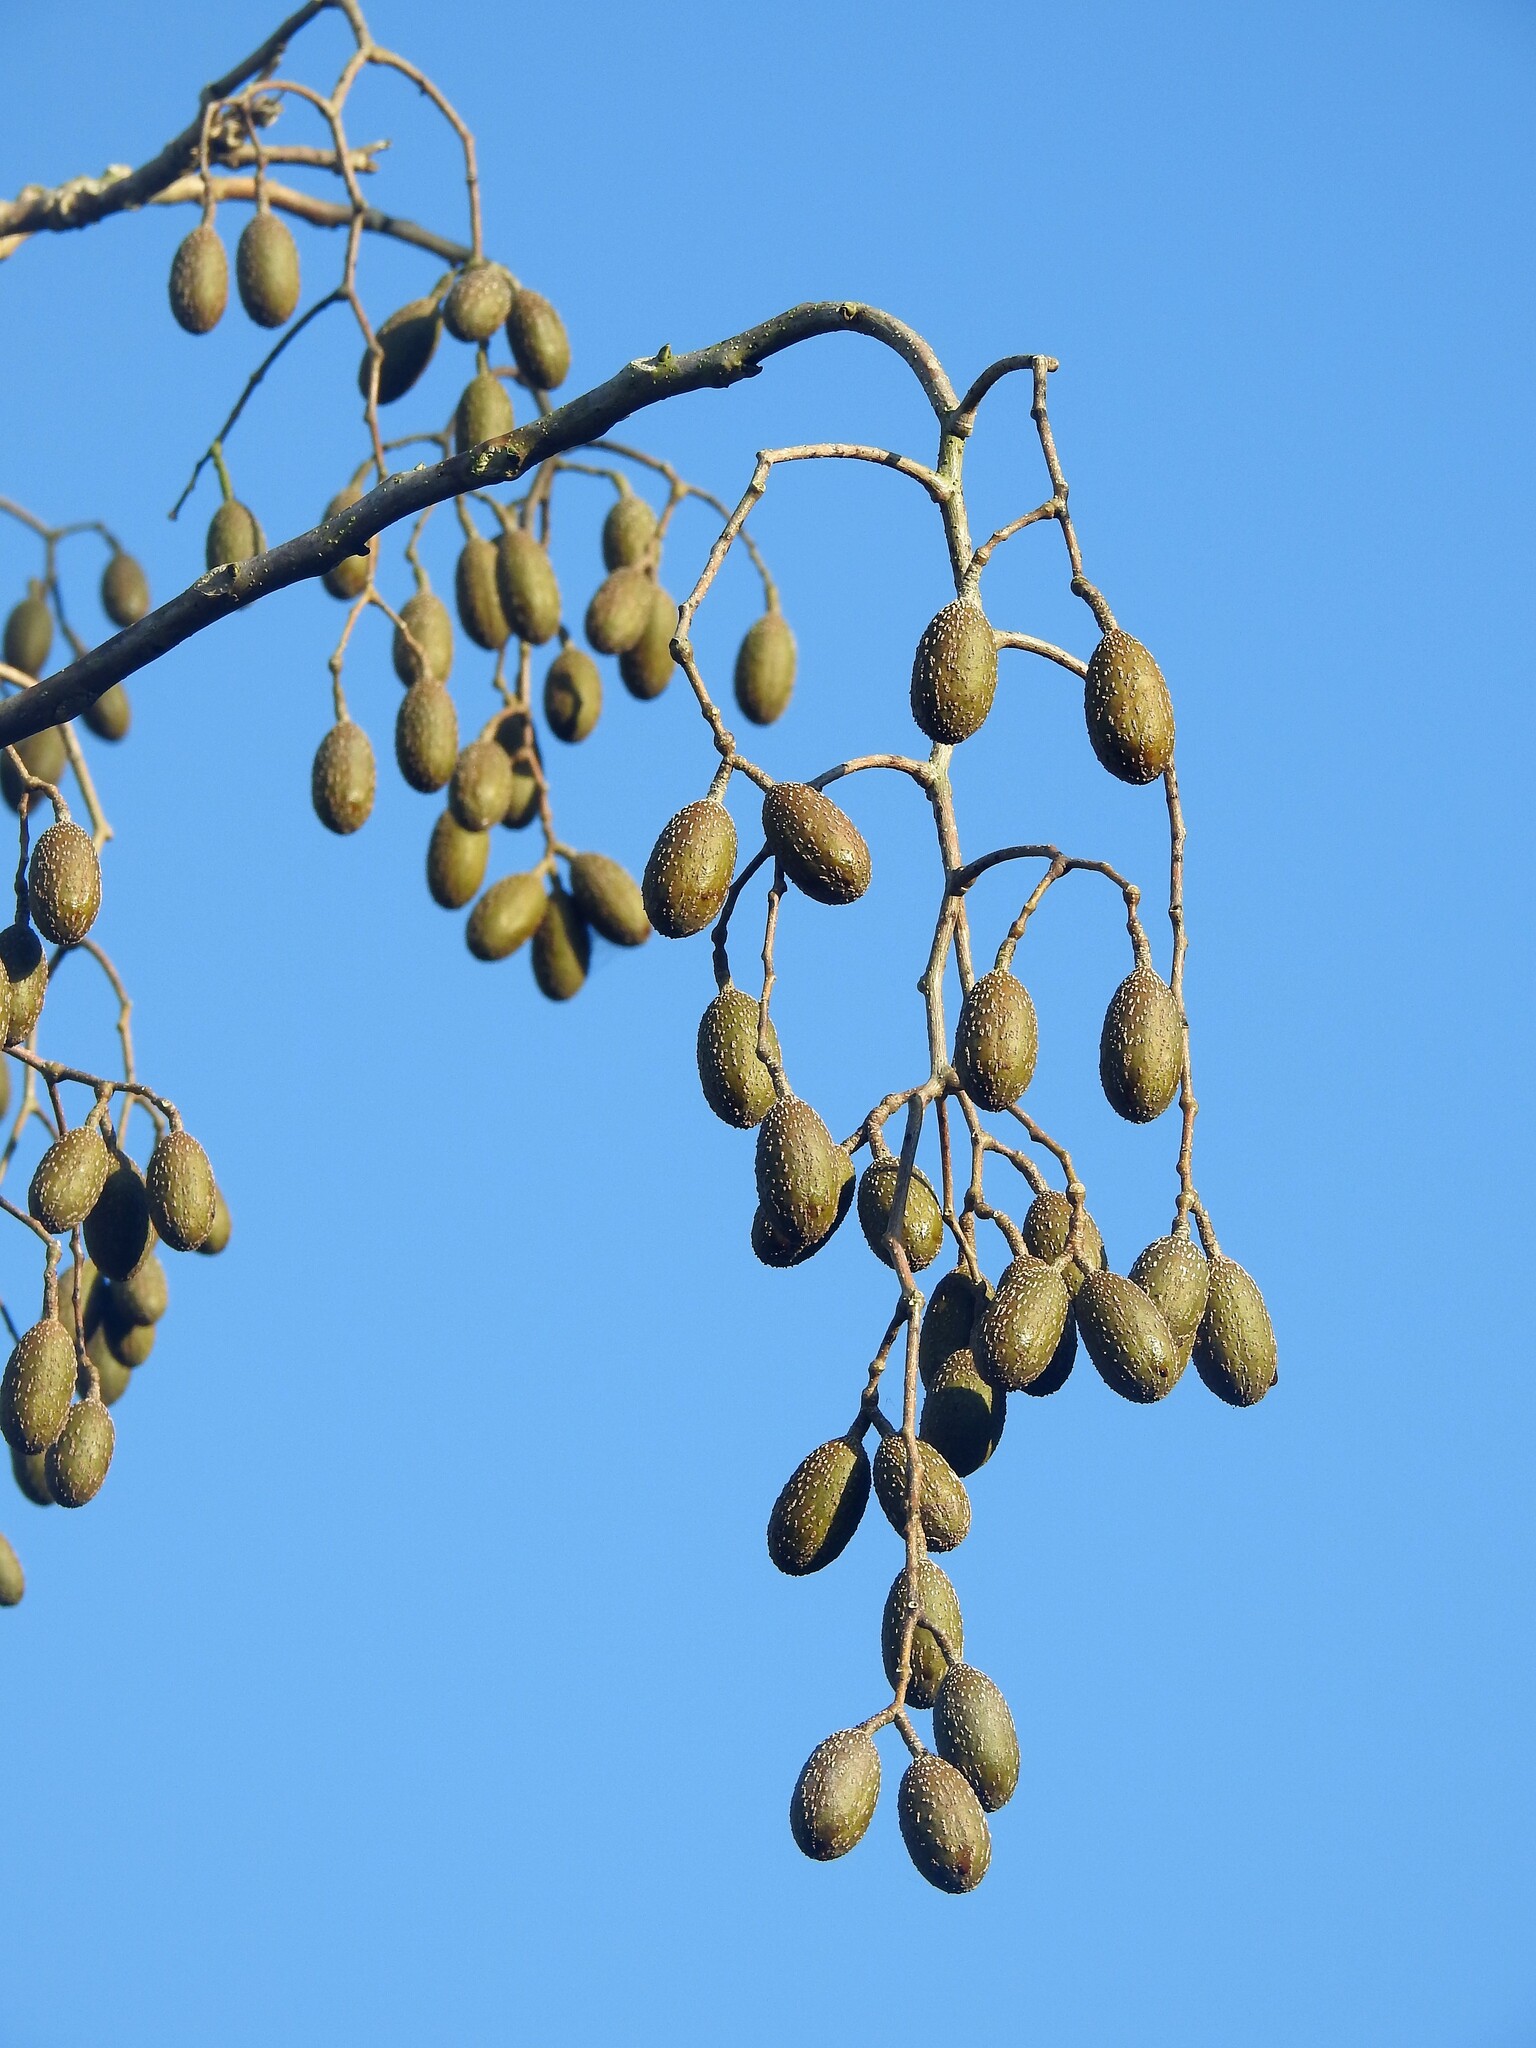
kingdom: Plantae
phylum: Tracheophyta
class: Magnoliopsida
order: Sapindales
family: Meliaceae
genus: Cedrela
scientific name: Cedrela odorata
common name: Red cedar
